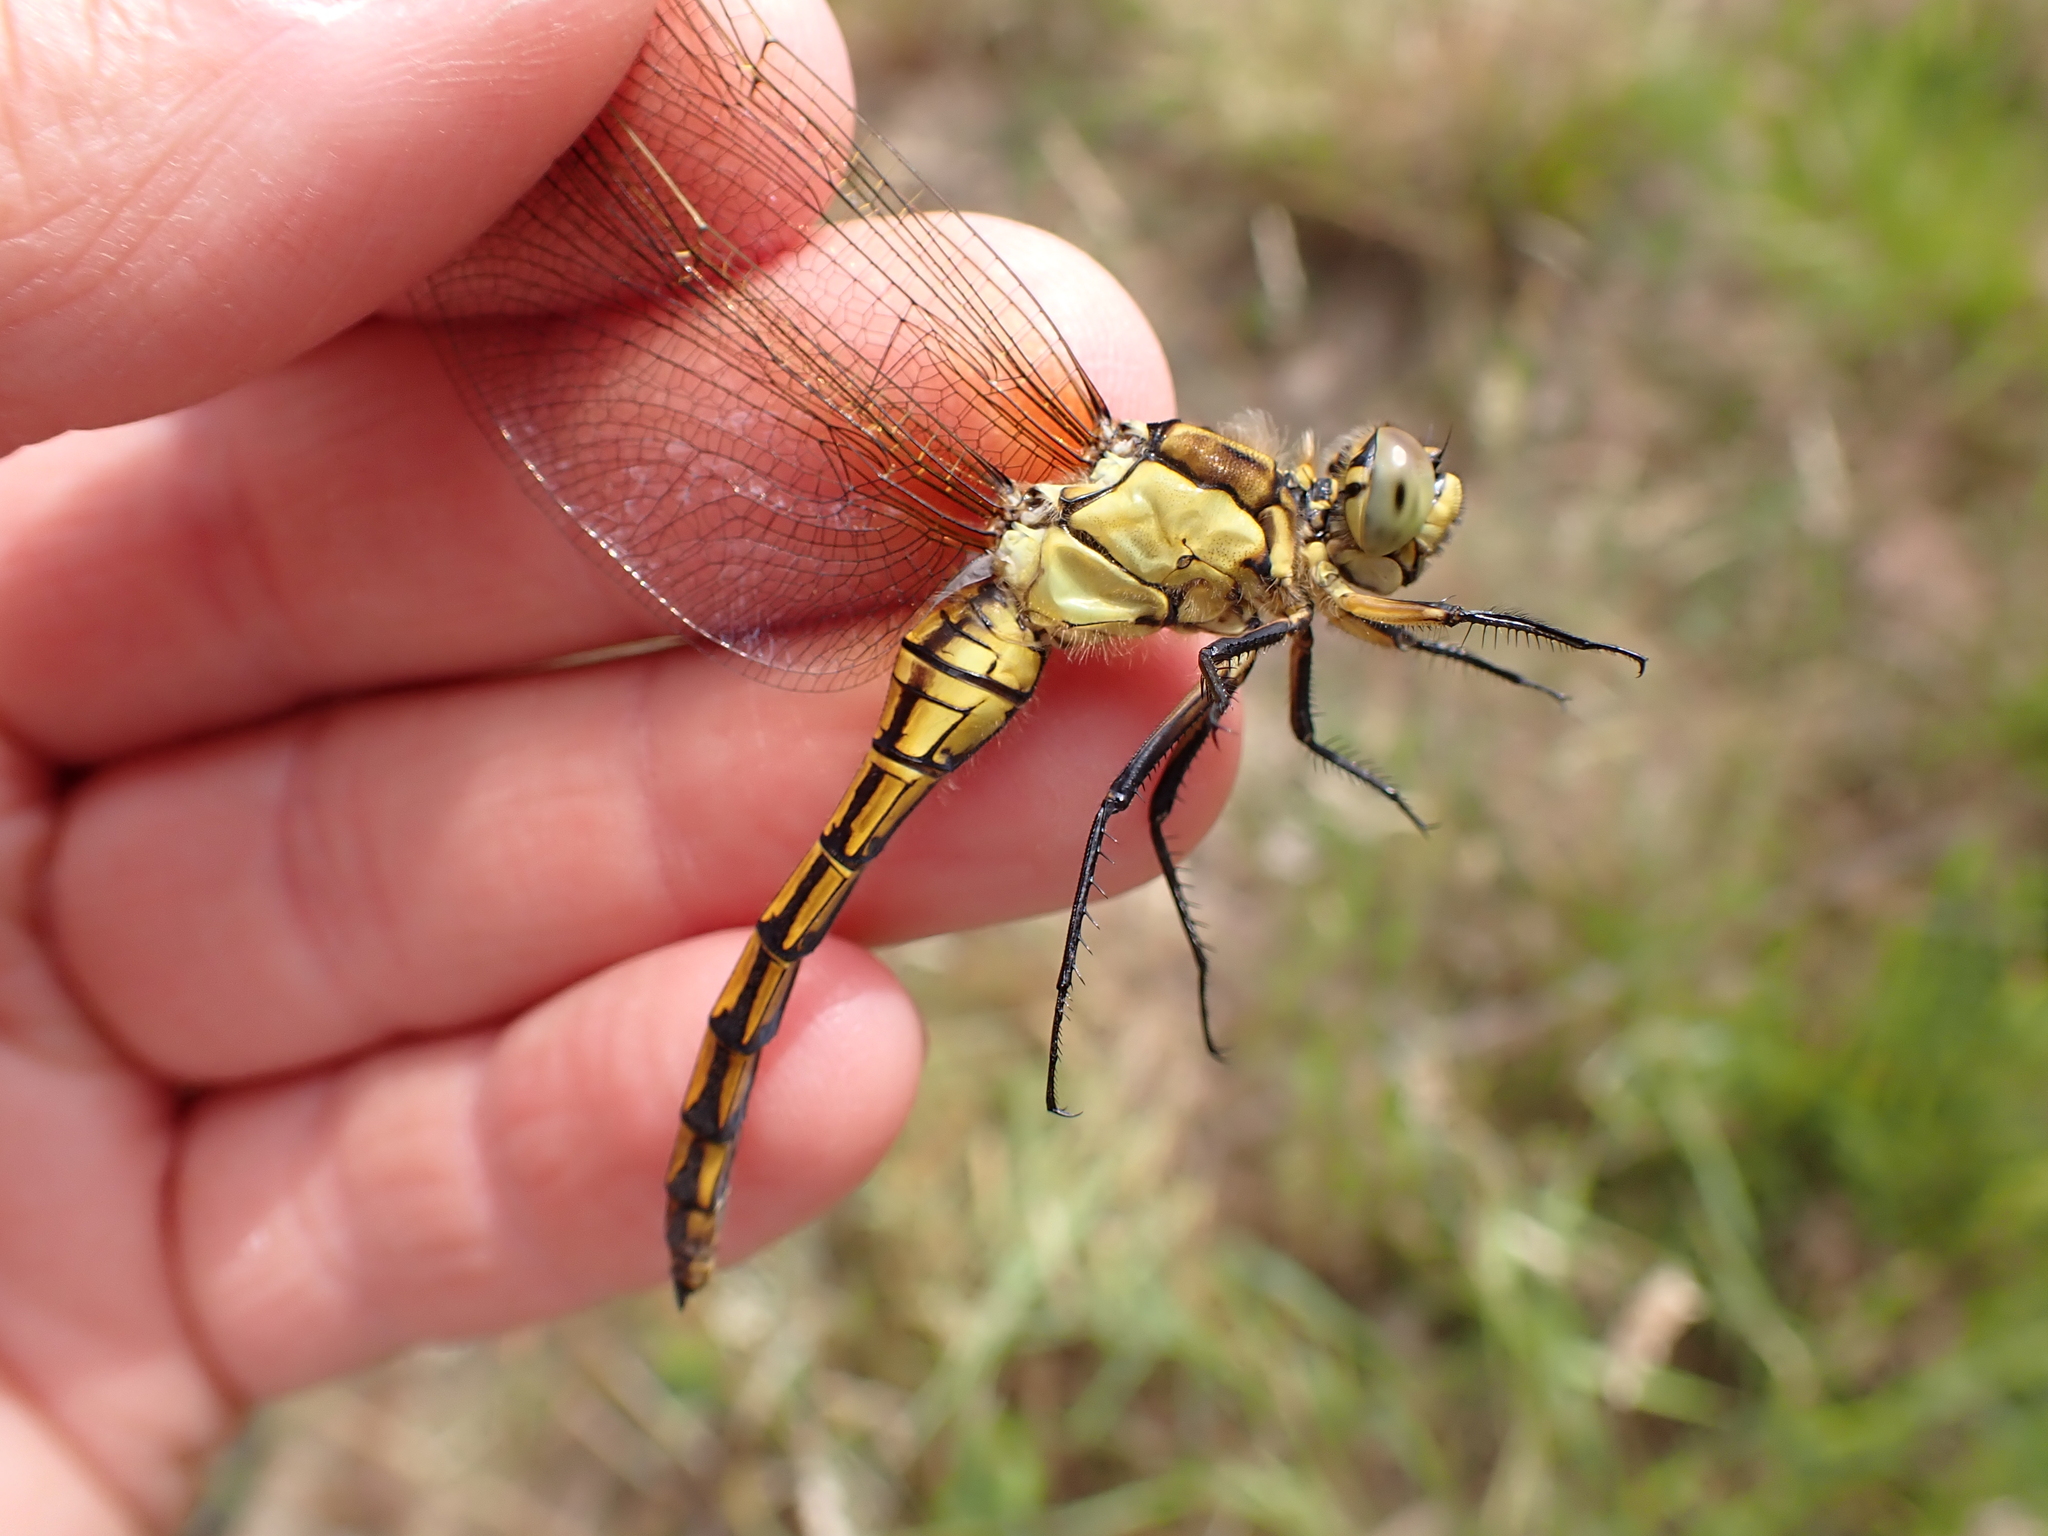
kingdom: Animalia
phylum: Arthropoda
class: Insecta
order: Odonata
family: Libellulidae
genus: Orthetrum
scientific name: Orthetrum cancellatum
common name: Black-tailed skimmer
